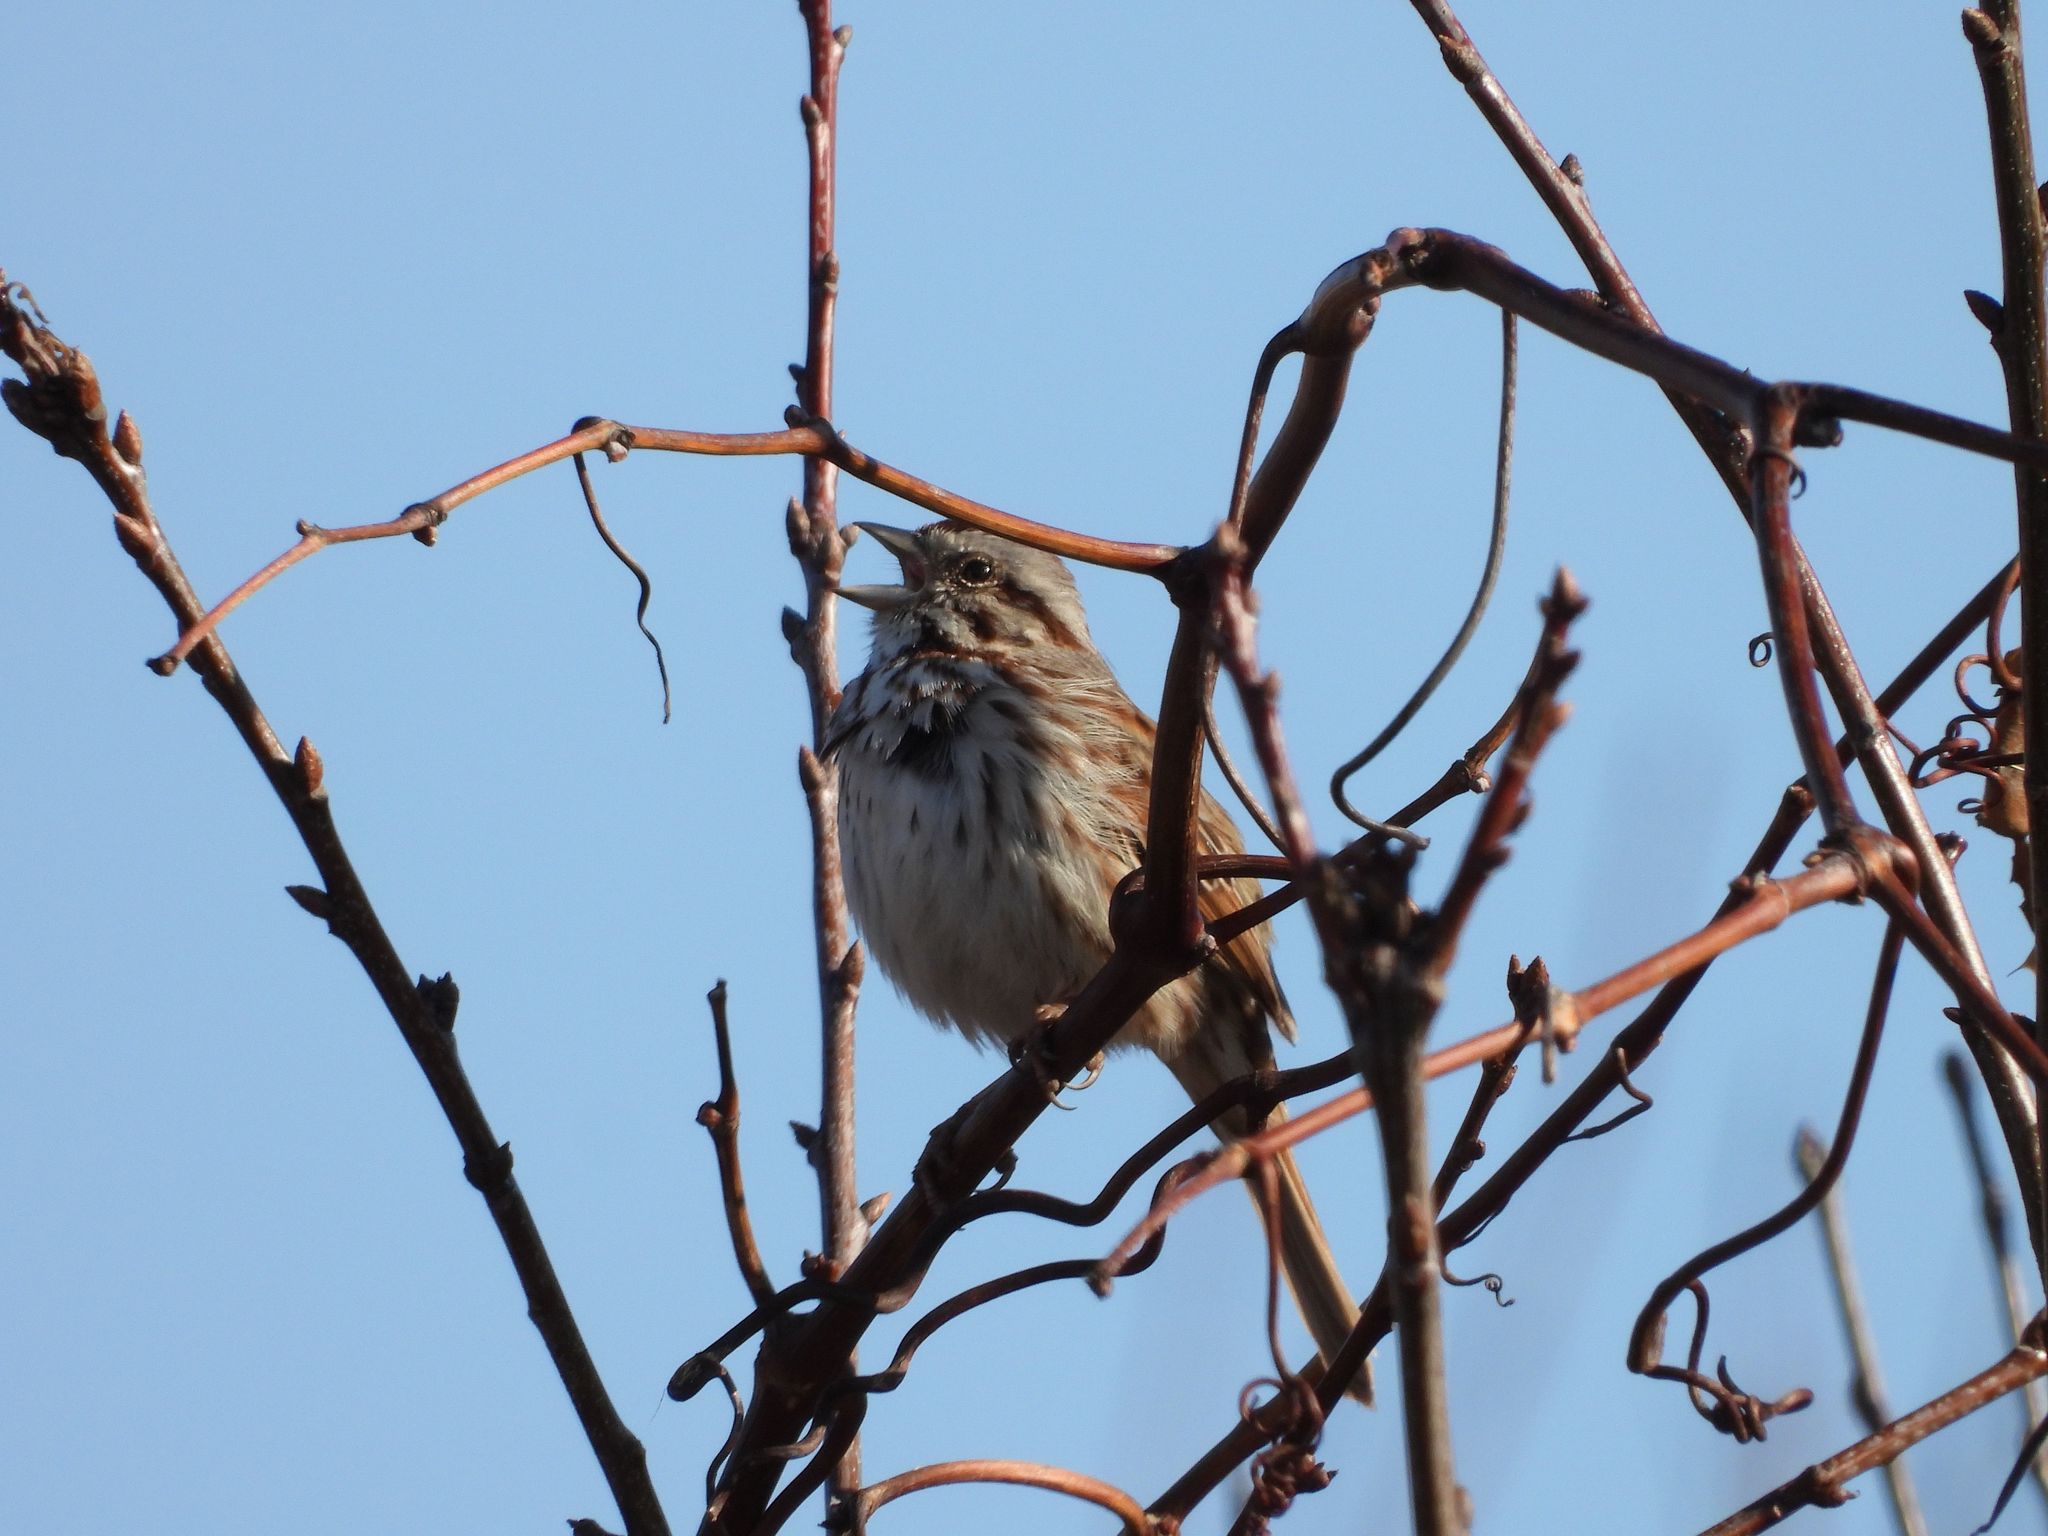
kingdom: Animalia
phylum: Chordata
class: Aves
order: Passeriformes
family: Passerellidae
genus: Melospiza
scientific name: Melospiza melodia
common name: Song sparrow
